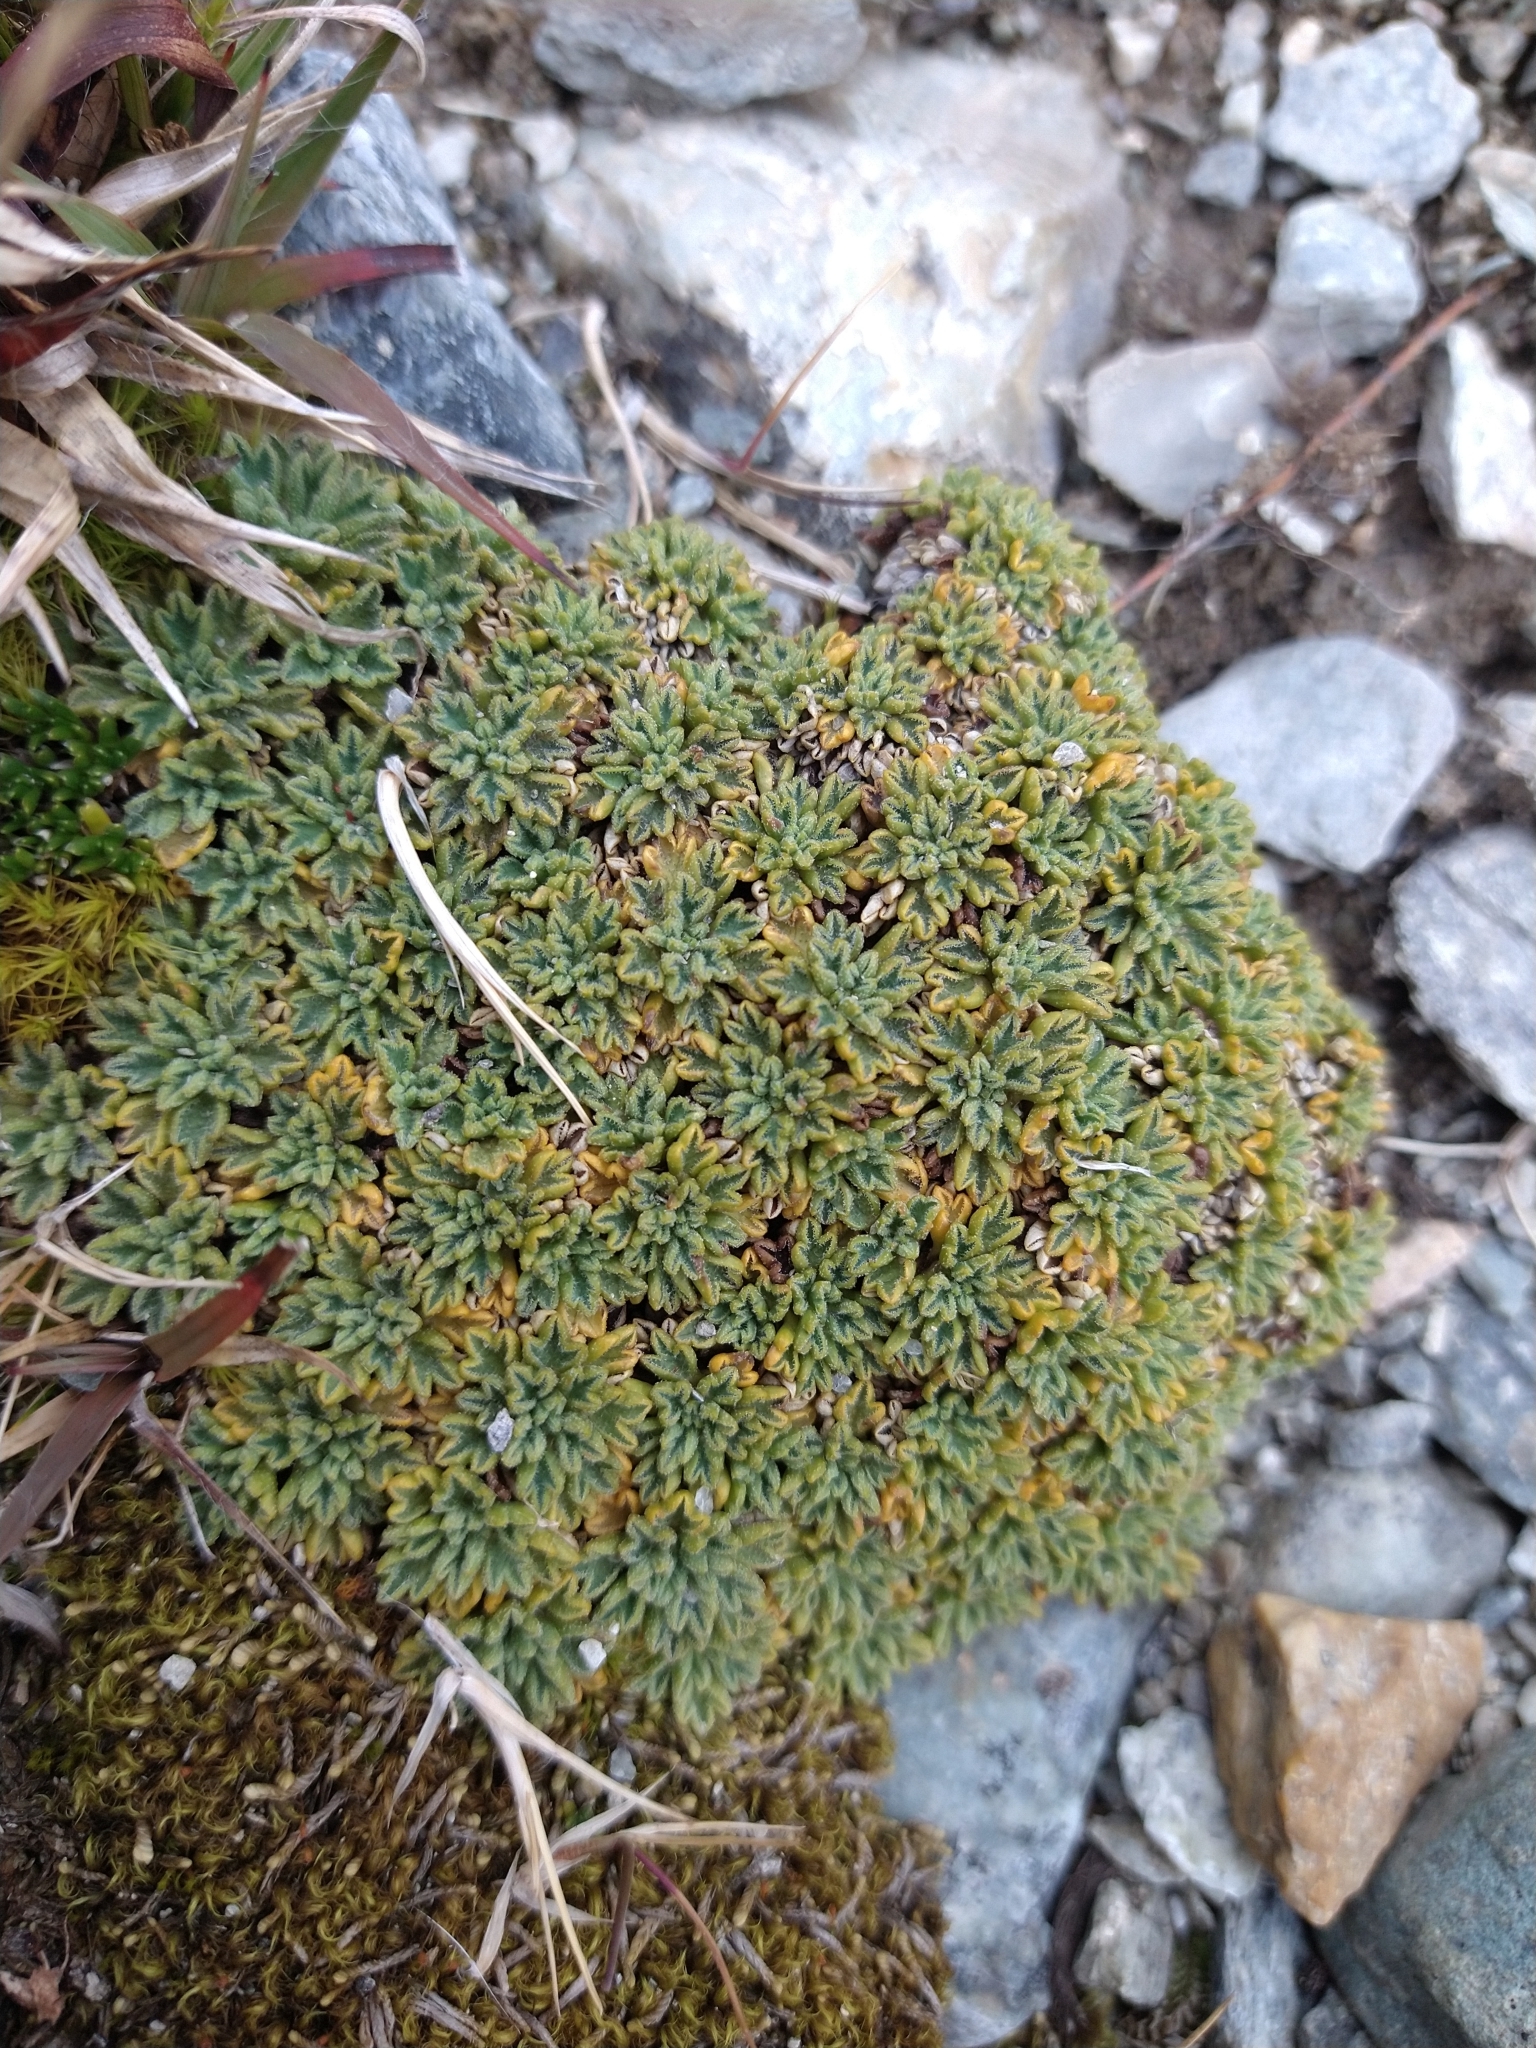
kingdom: Plantae
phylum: Tracheophyta
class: Magnoliopsida
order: Apiales
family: Apiaceae
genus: Bolax
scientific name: Bolax gummifera
